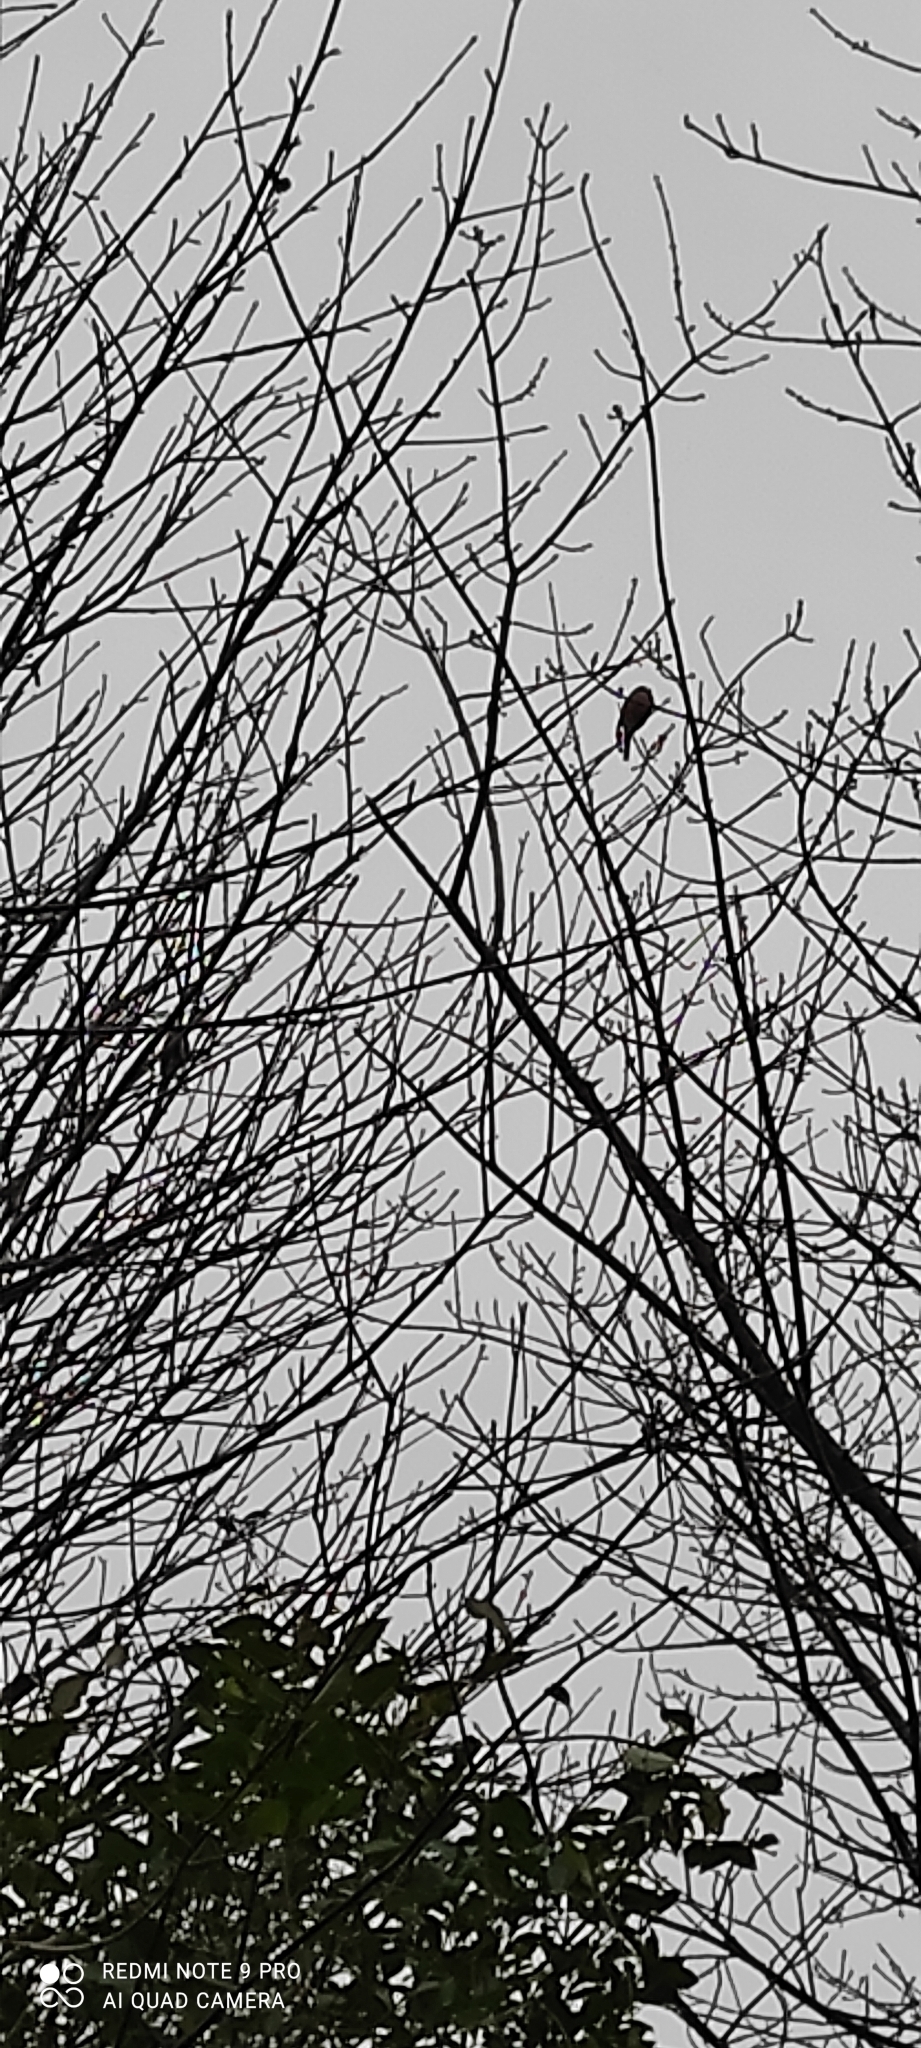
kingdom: Animalia
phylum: Chordata
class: Aves
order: Passeriformes
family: Fringillidae
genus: Pyrrhula
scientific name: Pyrrhula pyrrhula
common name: Eurasian bullfinch
